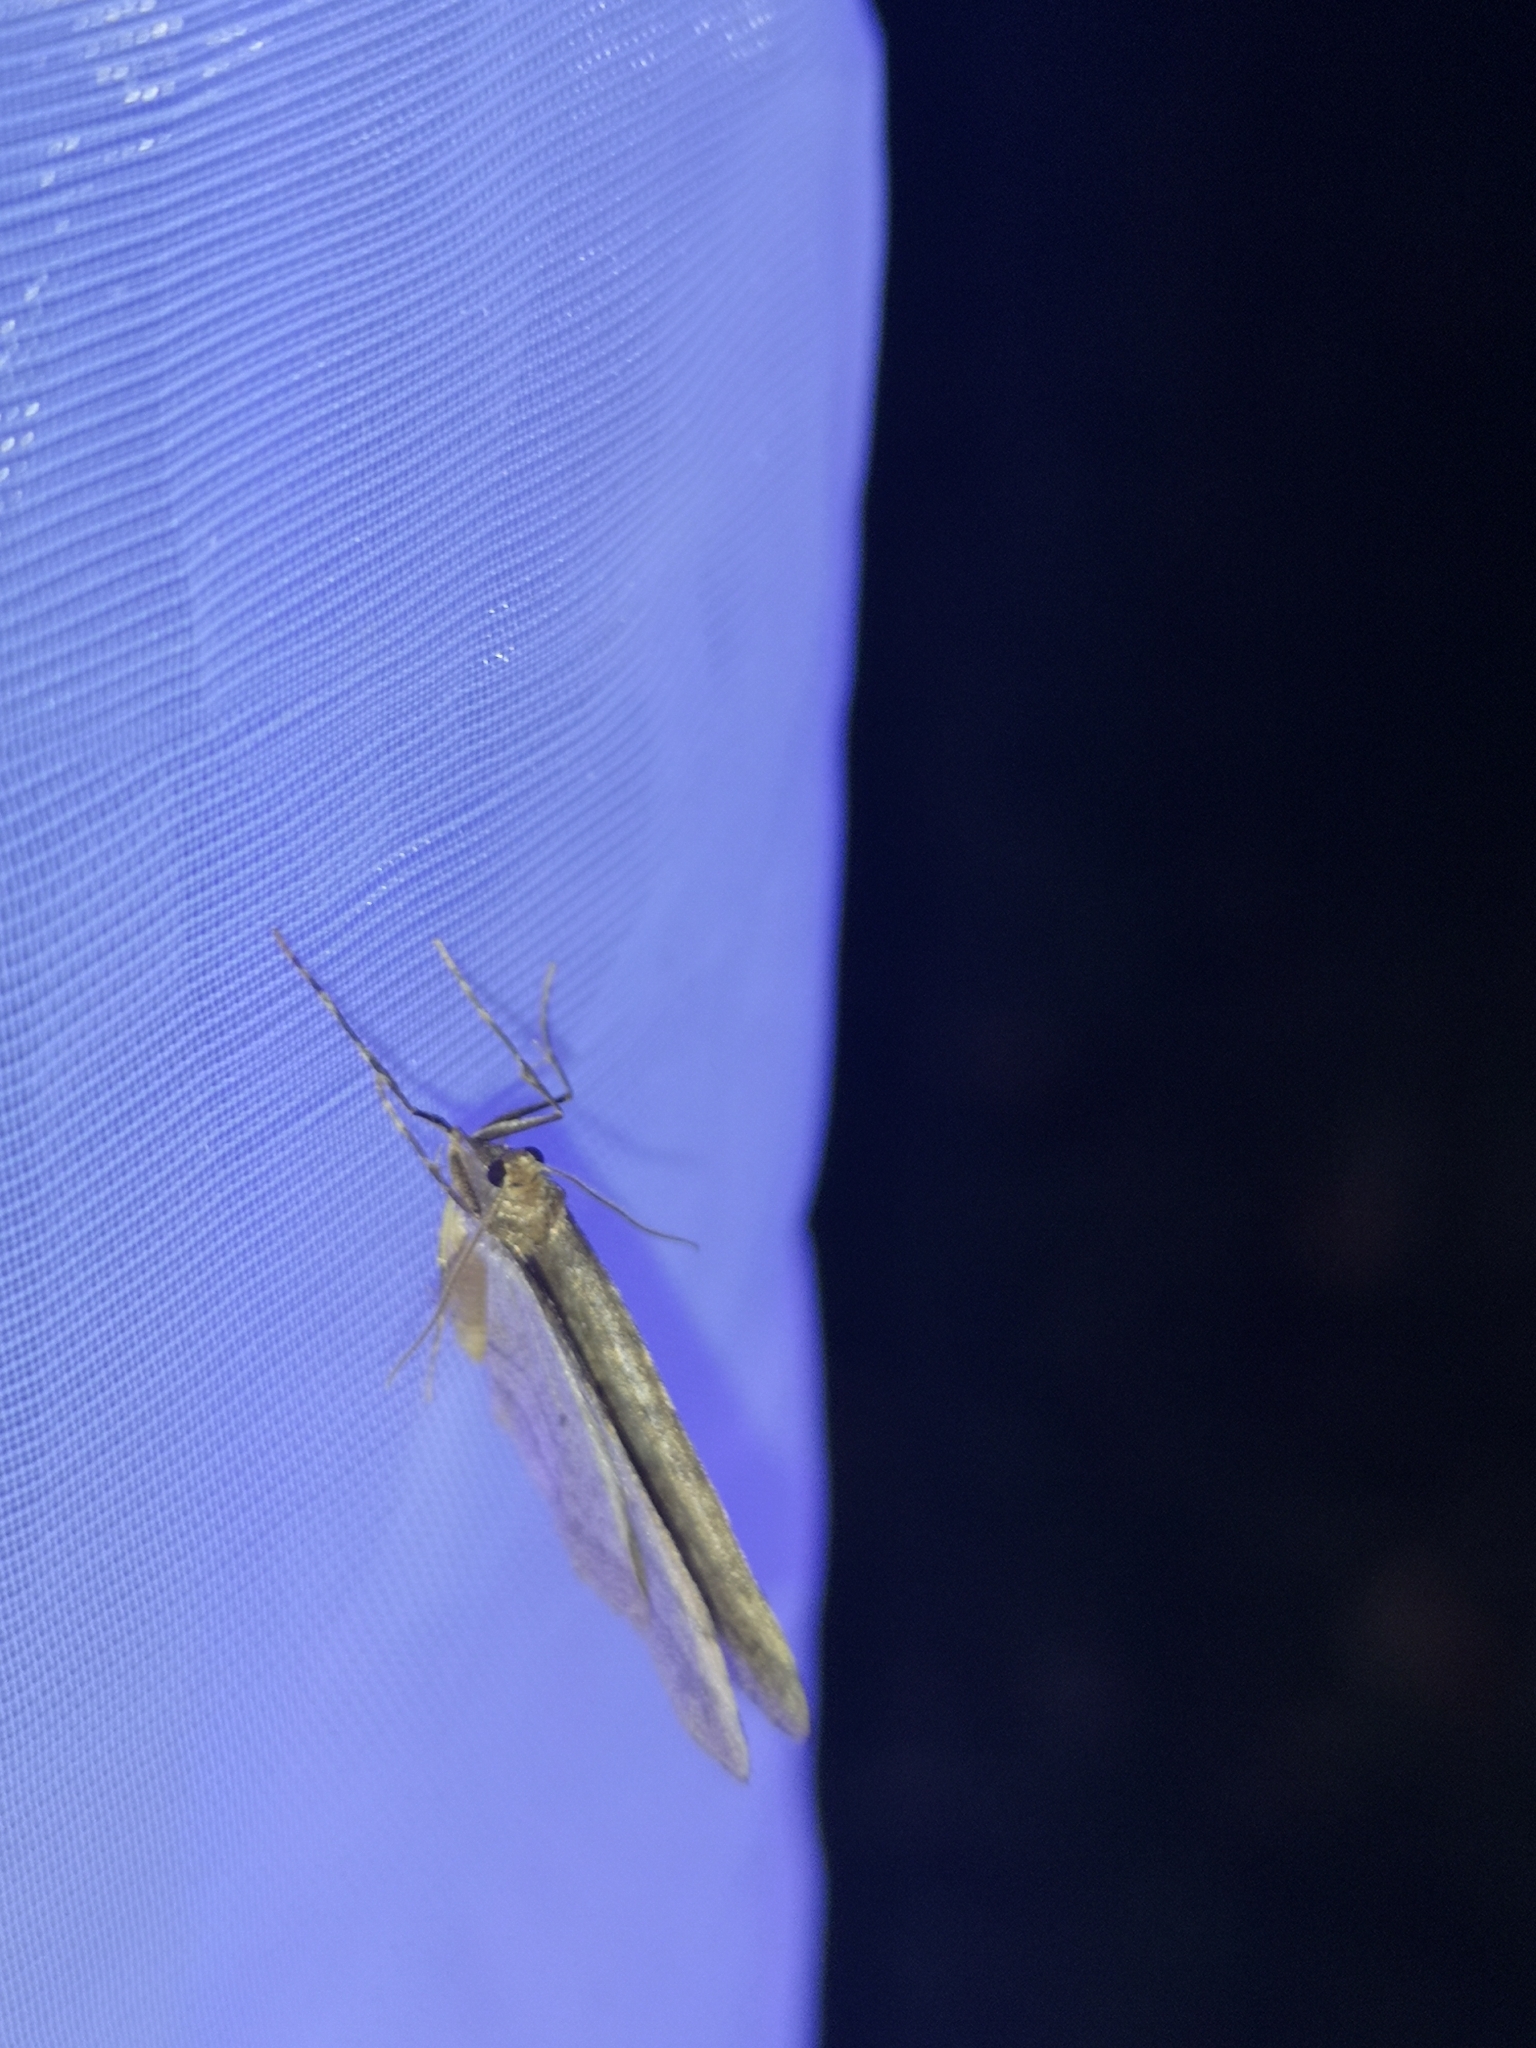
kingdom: Animalia
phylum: Arthropoda
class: Insecta
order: Lepidoptera
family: Geometridae
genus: Operophtera
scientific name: Operophtera brumata
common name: Winter moth
